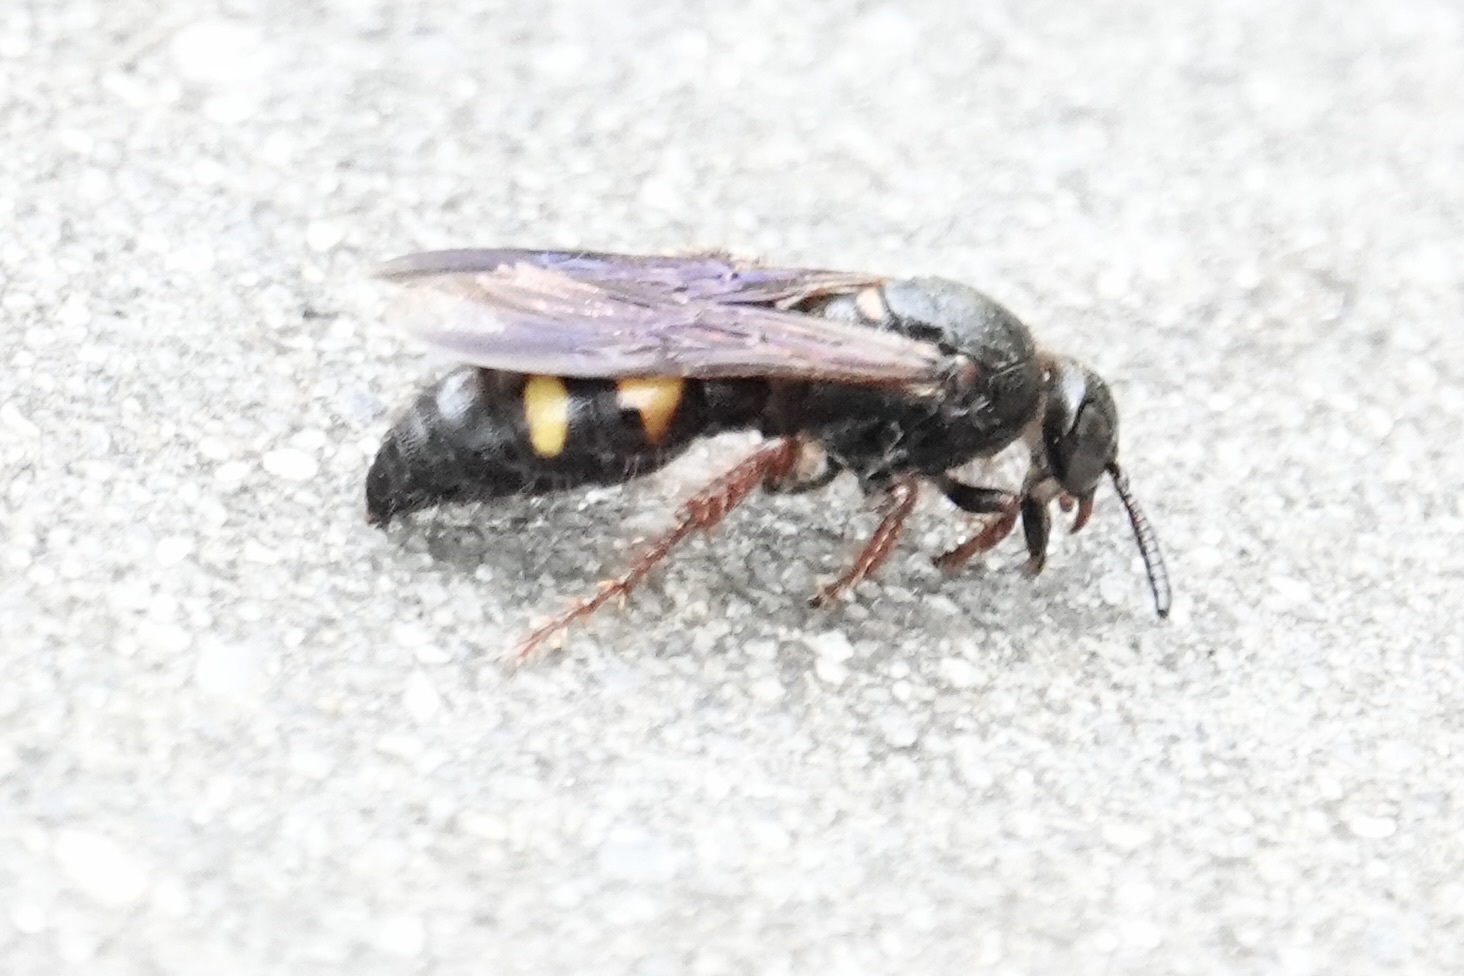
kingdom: Animalia
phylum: Arthropoda
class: Insecta
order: Hymenoptera
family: Scoliidae
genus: Scolia
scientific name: Scolia nobilitata
